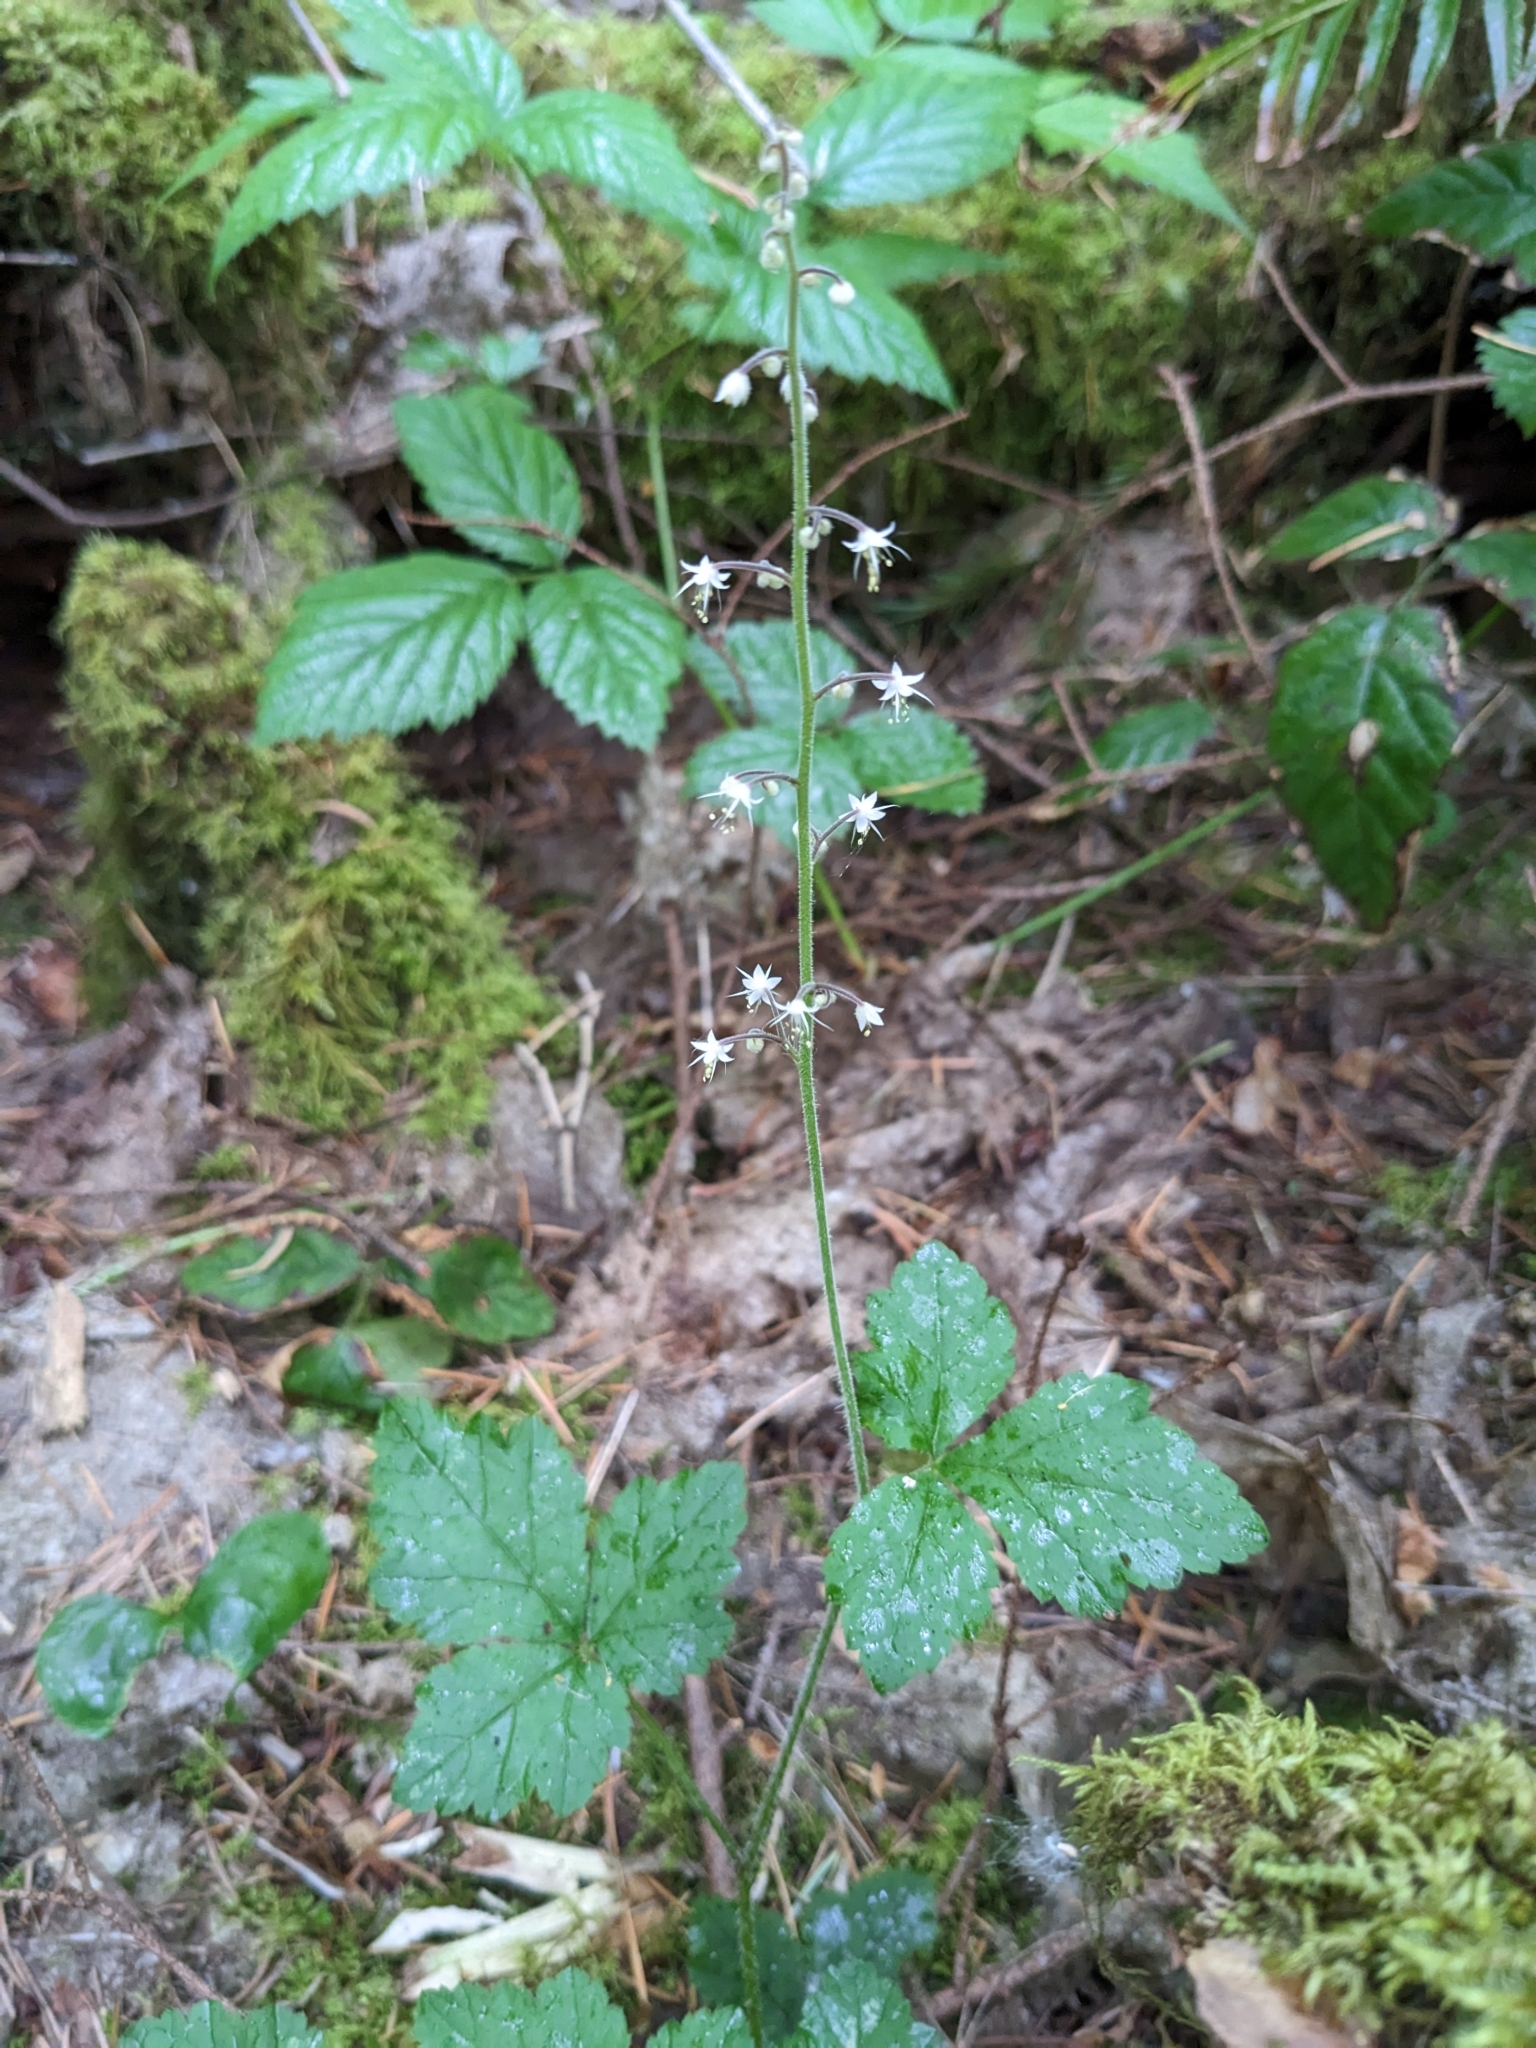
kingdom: Plantae
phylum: Tracheophyta
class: Magnoliopsida
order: Saxifragales
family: Saxifragaceae
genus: Tiarella
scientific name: Tiarella trifoliata
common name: Sugar-scoop
